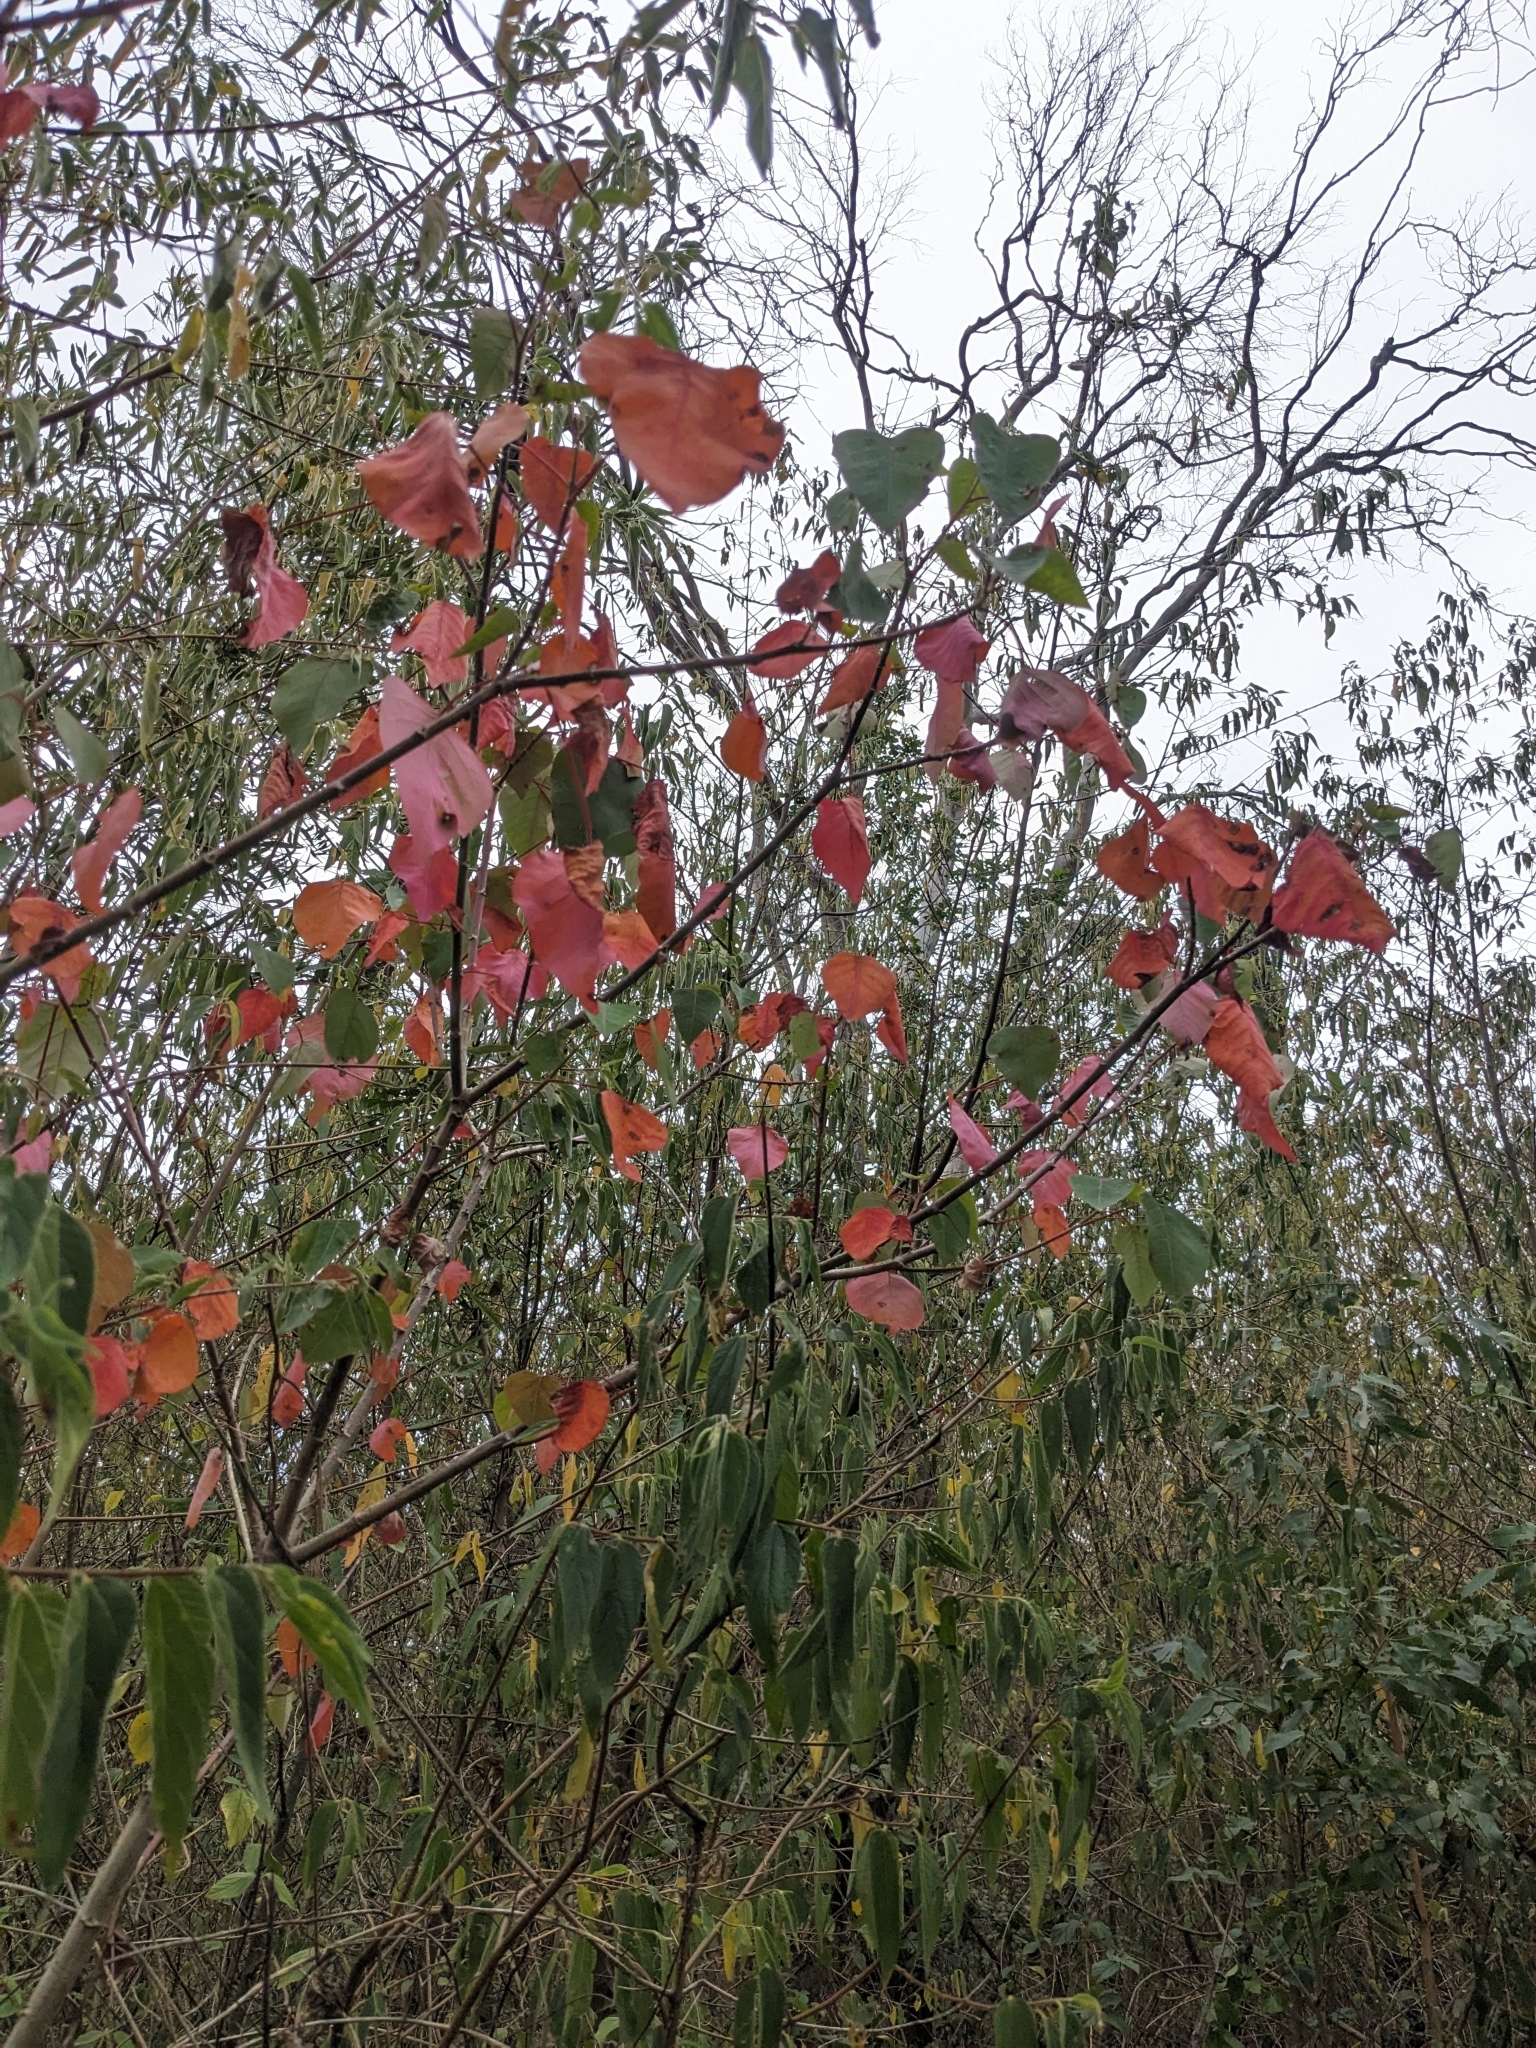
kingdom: Plantae
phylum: Tracheophyta
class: Magnoliopsida
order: Malpighiales
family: Euphorbiaceae
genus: Homalanthus
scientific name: Homalanthus populifolius
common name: Queensland poplar
